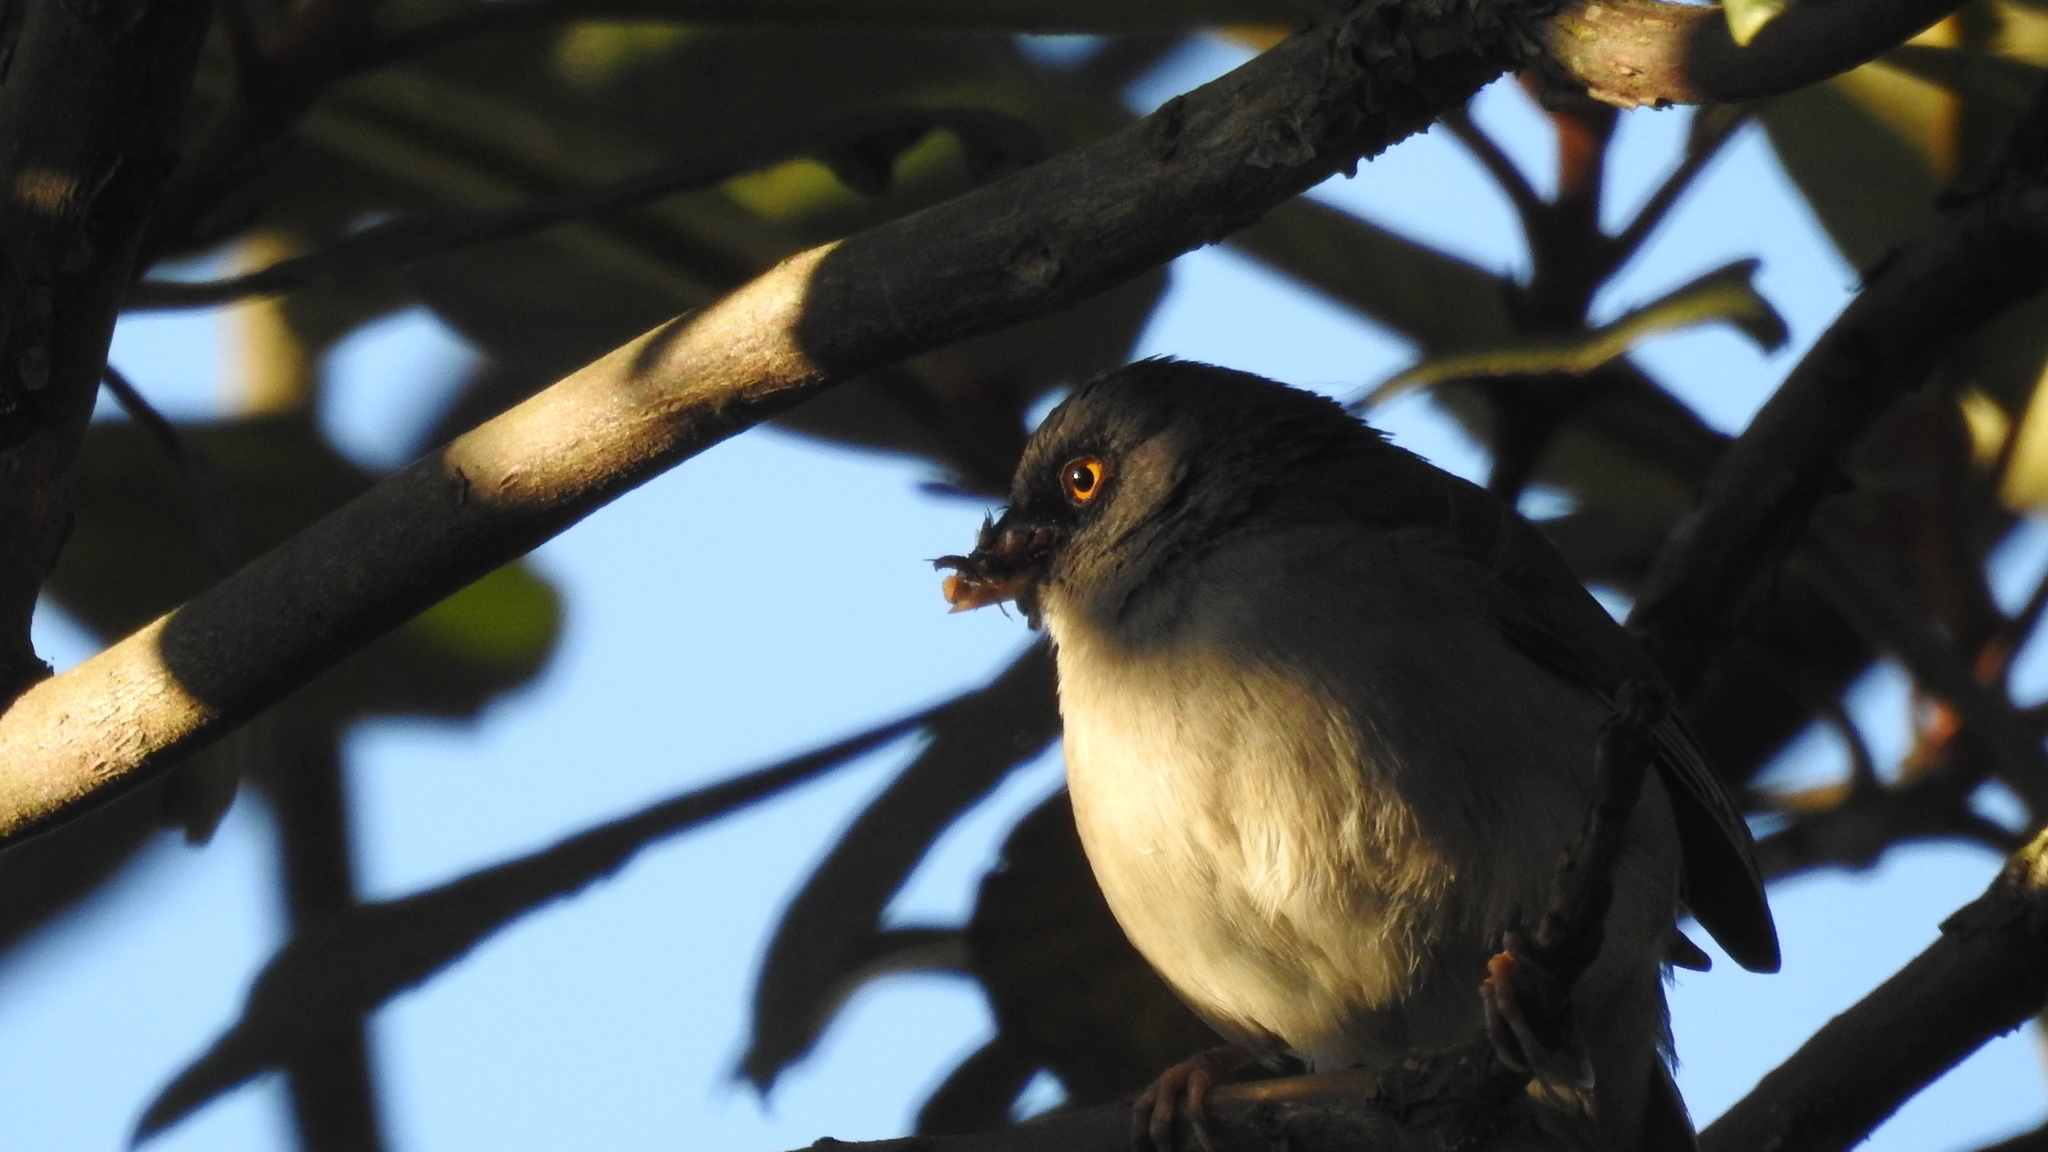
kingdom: Animalia
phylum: Chordata
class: Aves
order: Passeriformes
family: Passerellidae
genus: Junco
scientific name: Junco phaeonotus
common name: Yellow-eyed junco
